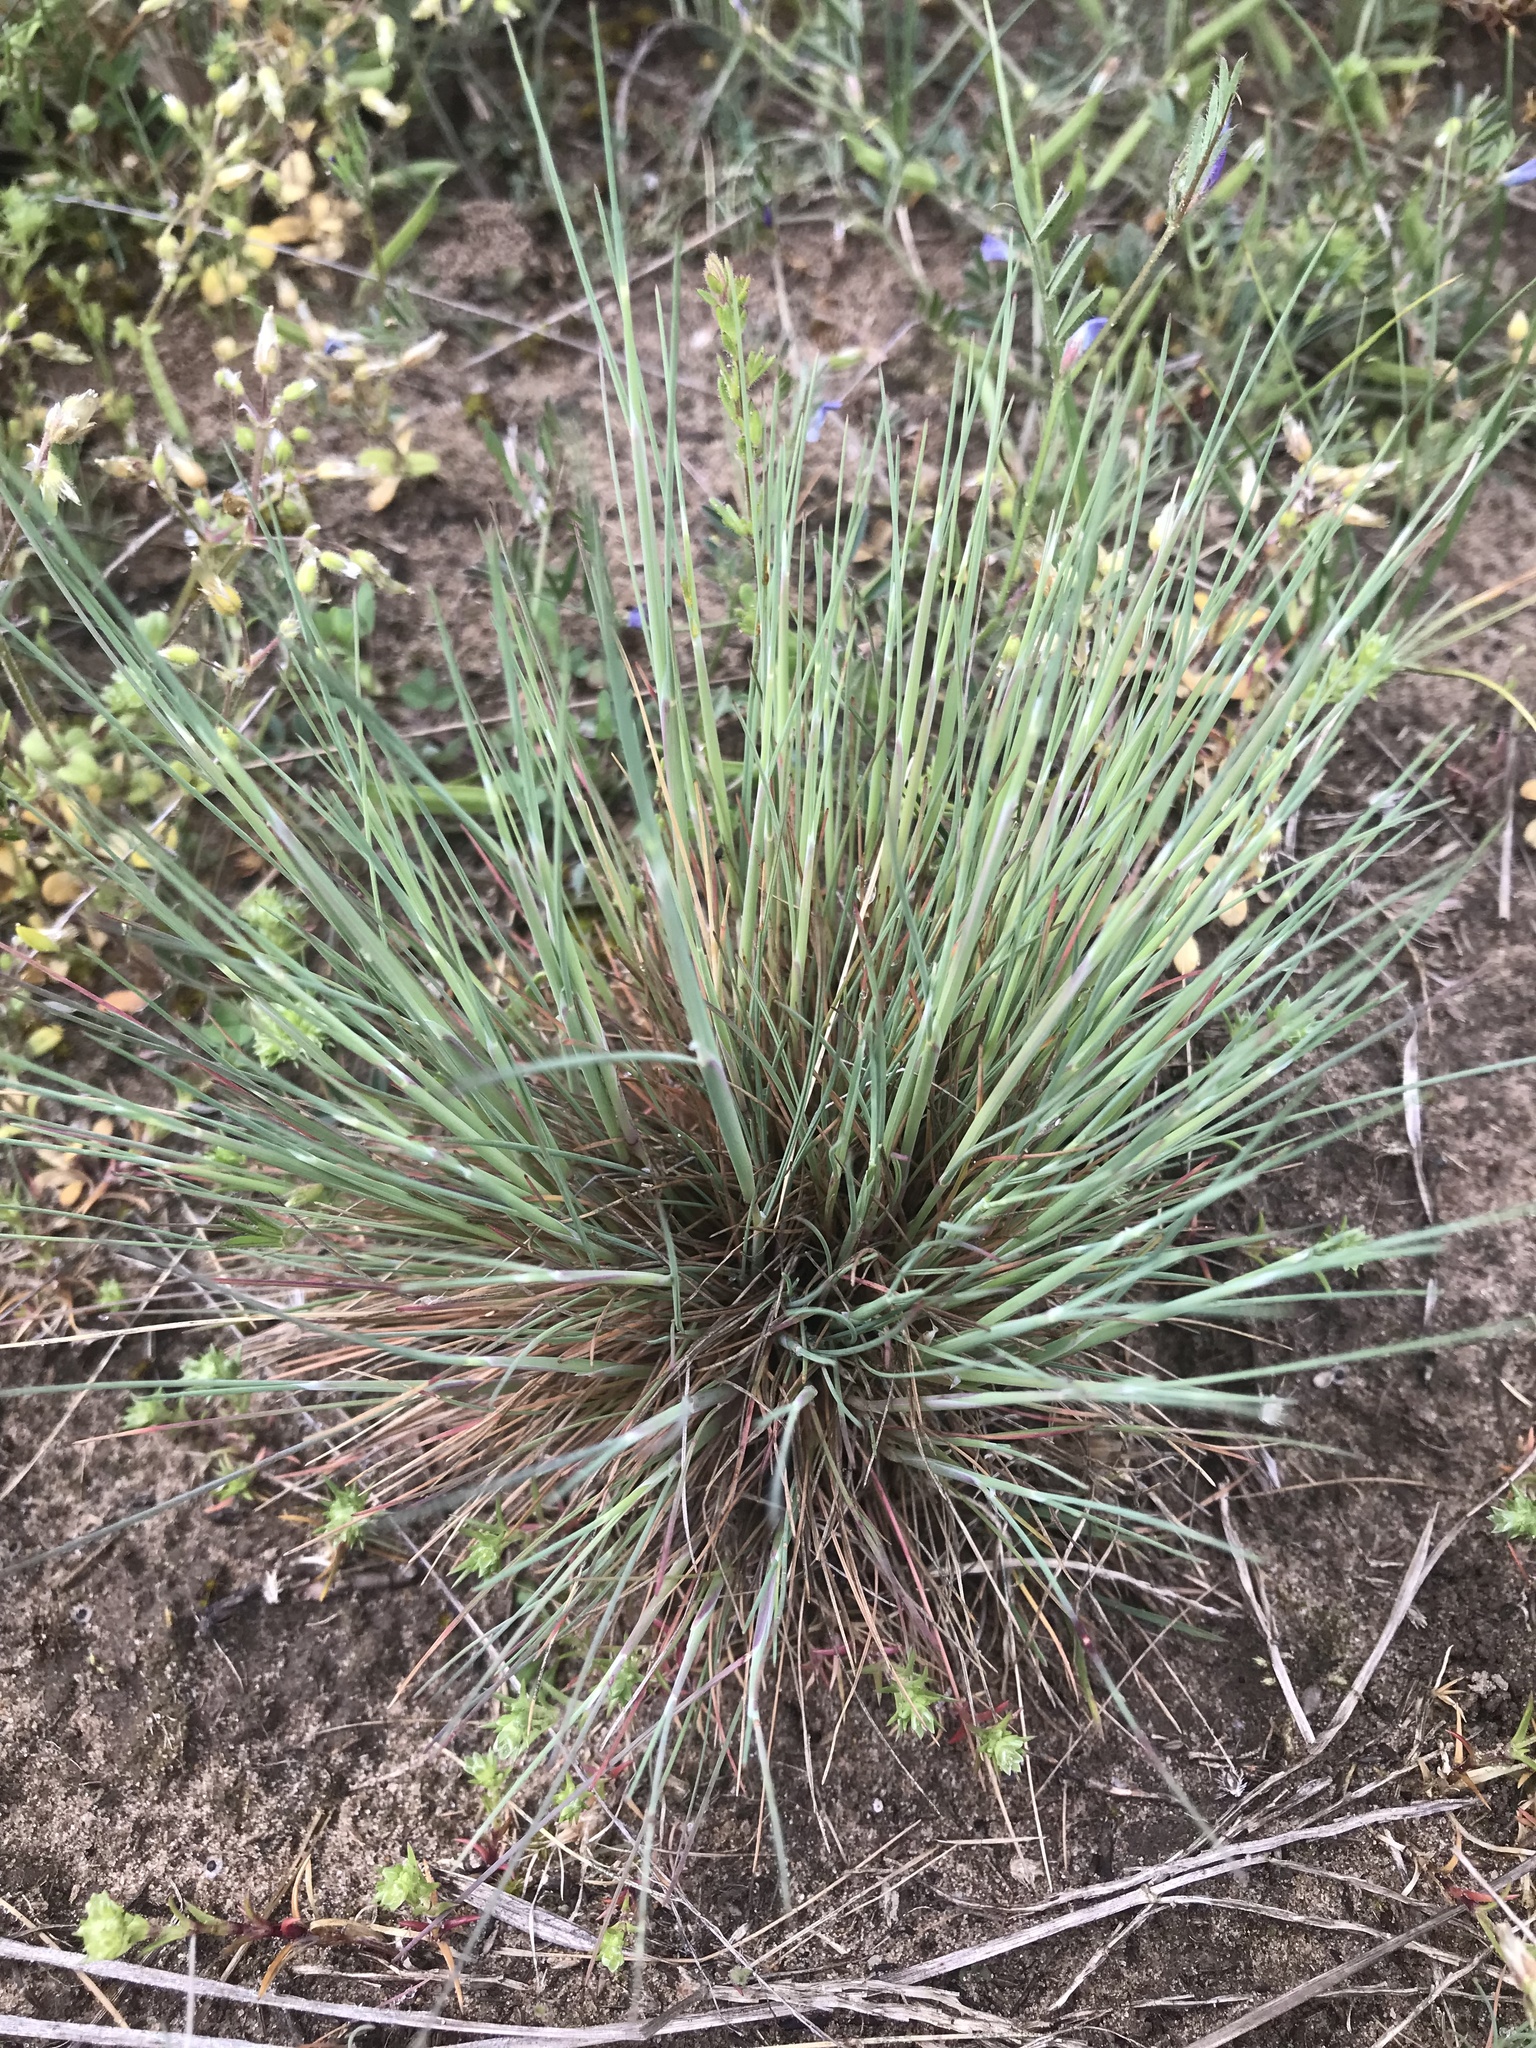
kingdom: Plantae
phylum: Tracheophyta
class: Liliopsida
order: Poales
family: Poaceae
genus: Corynephorus
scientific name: Corynephorus canescens
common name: Grey hair-grass
